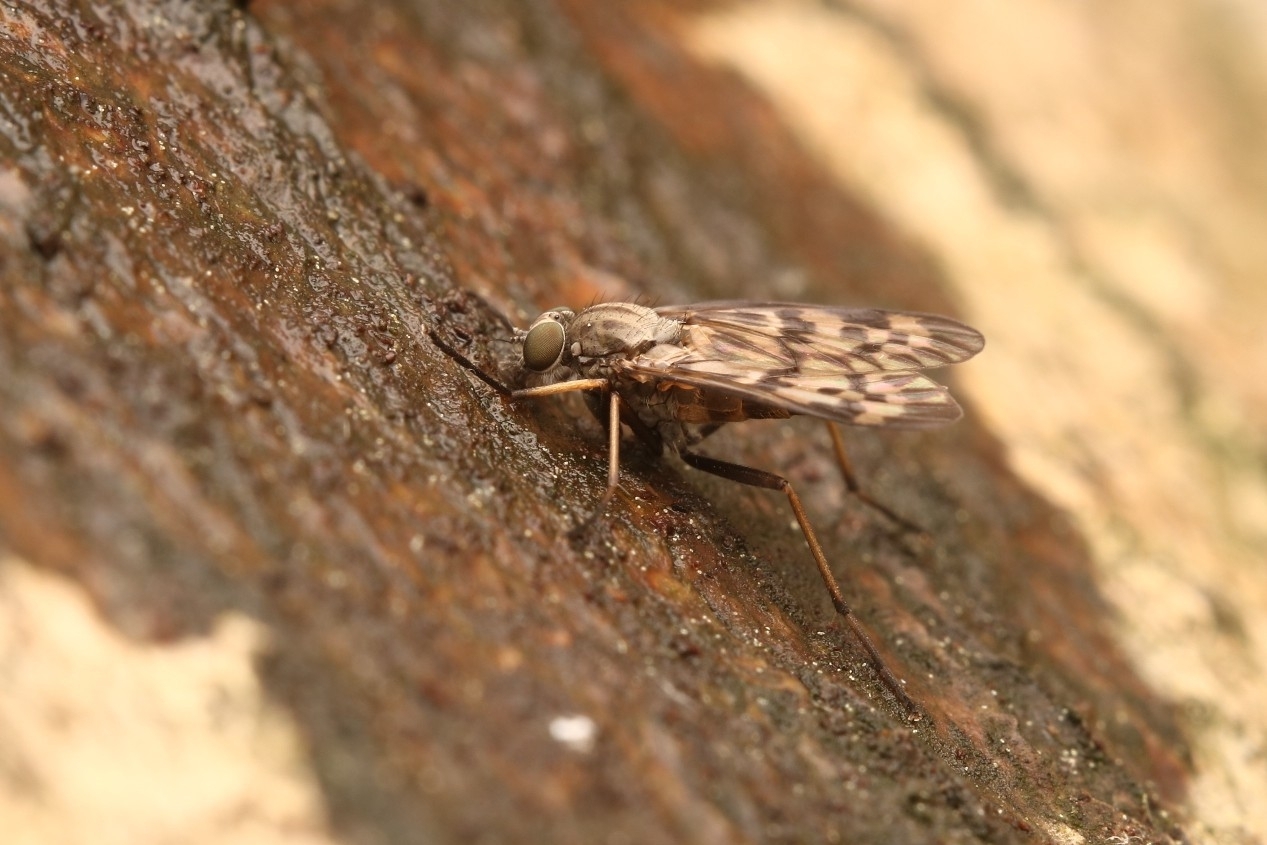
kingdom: Animalia
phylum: Arthropoda
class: Insecta
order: Diptera
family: Rhagionidae
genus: Rhagio
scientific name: Rhagio punctipennis
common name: Lesser variegated snipe fly
